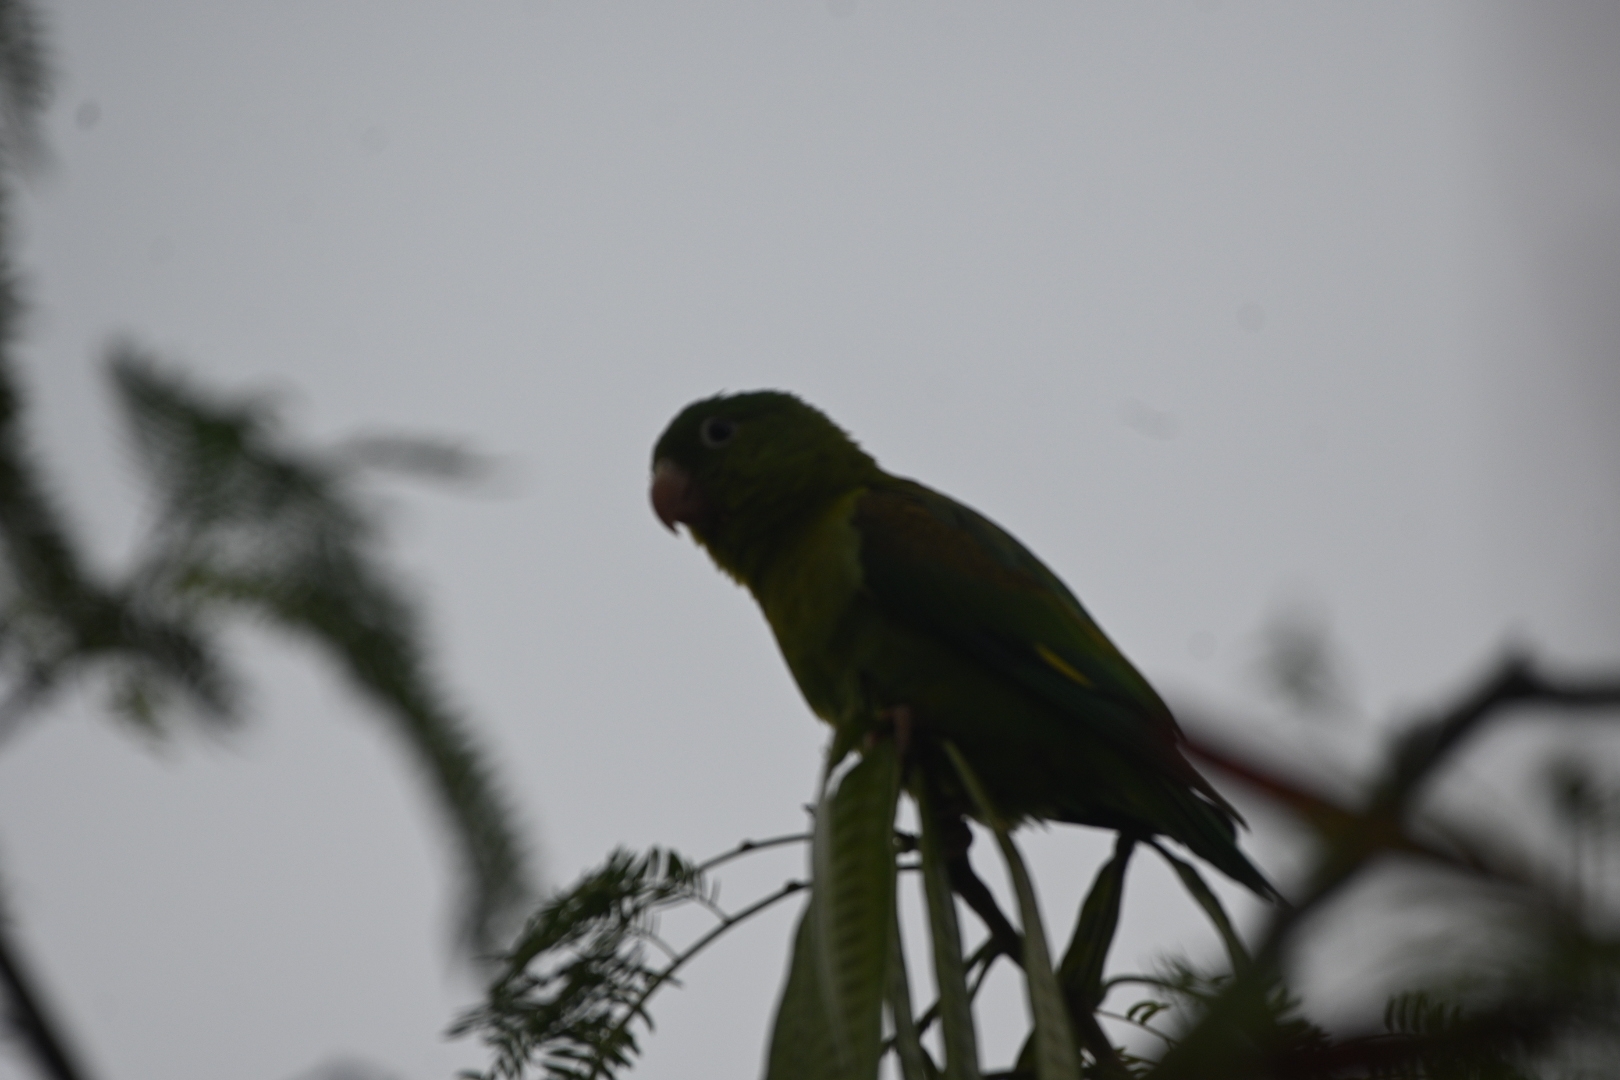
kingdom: Animalia
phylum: Chordata
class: Aves
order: Psittaciformes
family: Psittacidae
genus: Brotogeris
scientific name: Brotogeris jugularis
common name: Orange-chinned parakeet
